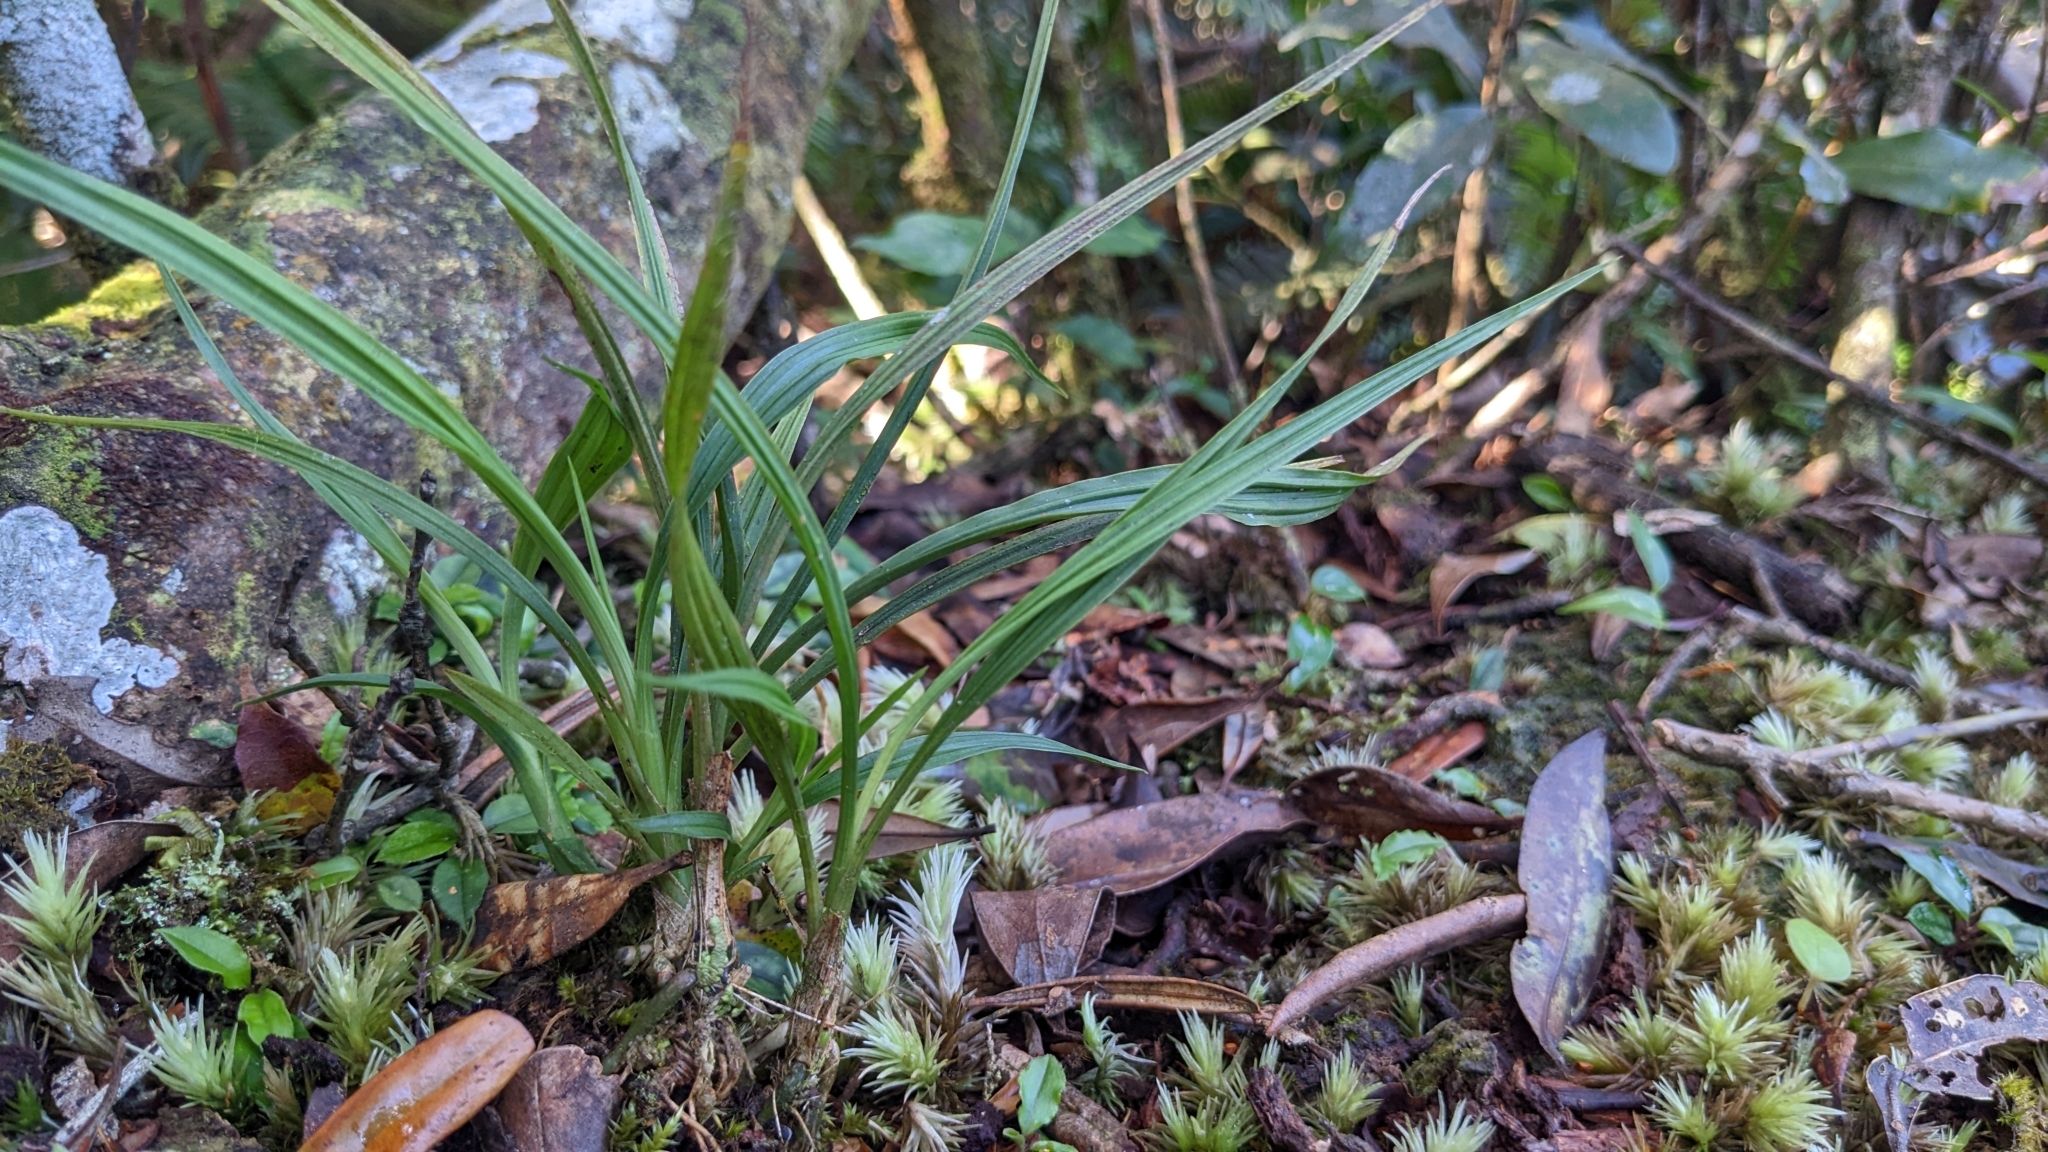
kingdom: Plantae
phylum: Tracheophyta
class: Liliopsida
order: Asparagales
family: Orchidaceae
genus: Calanthe
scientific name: Calanthe angustifolia
